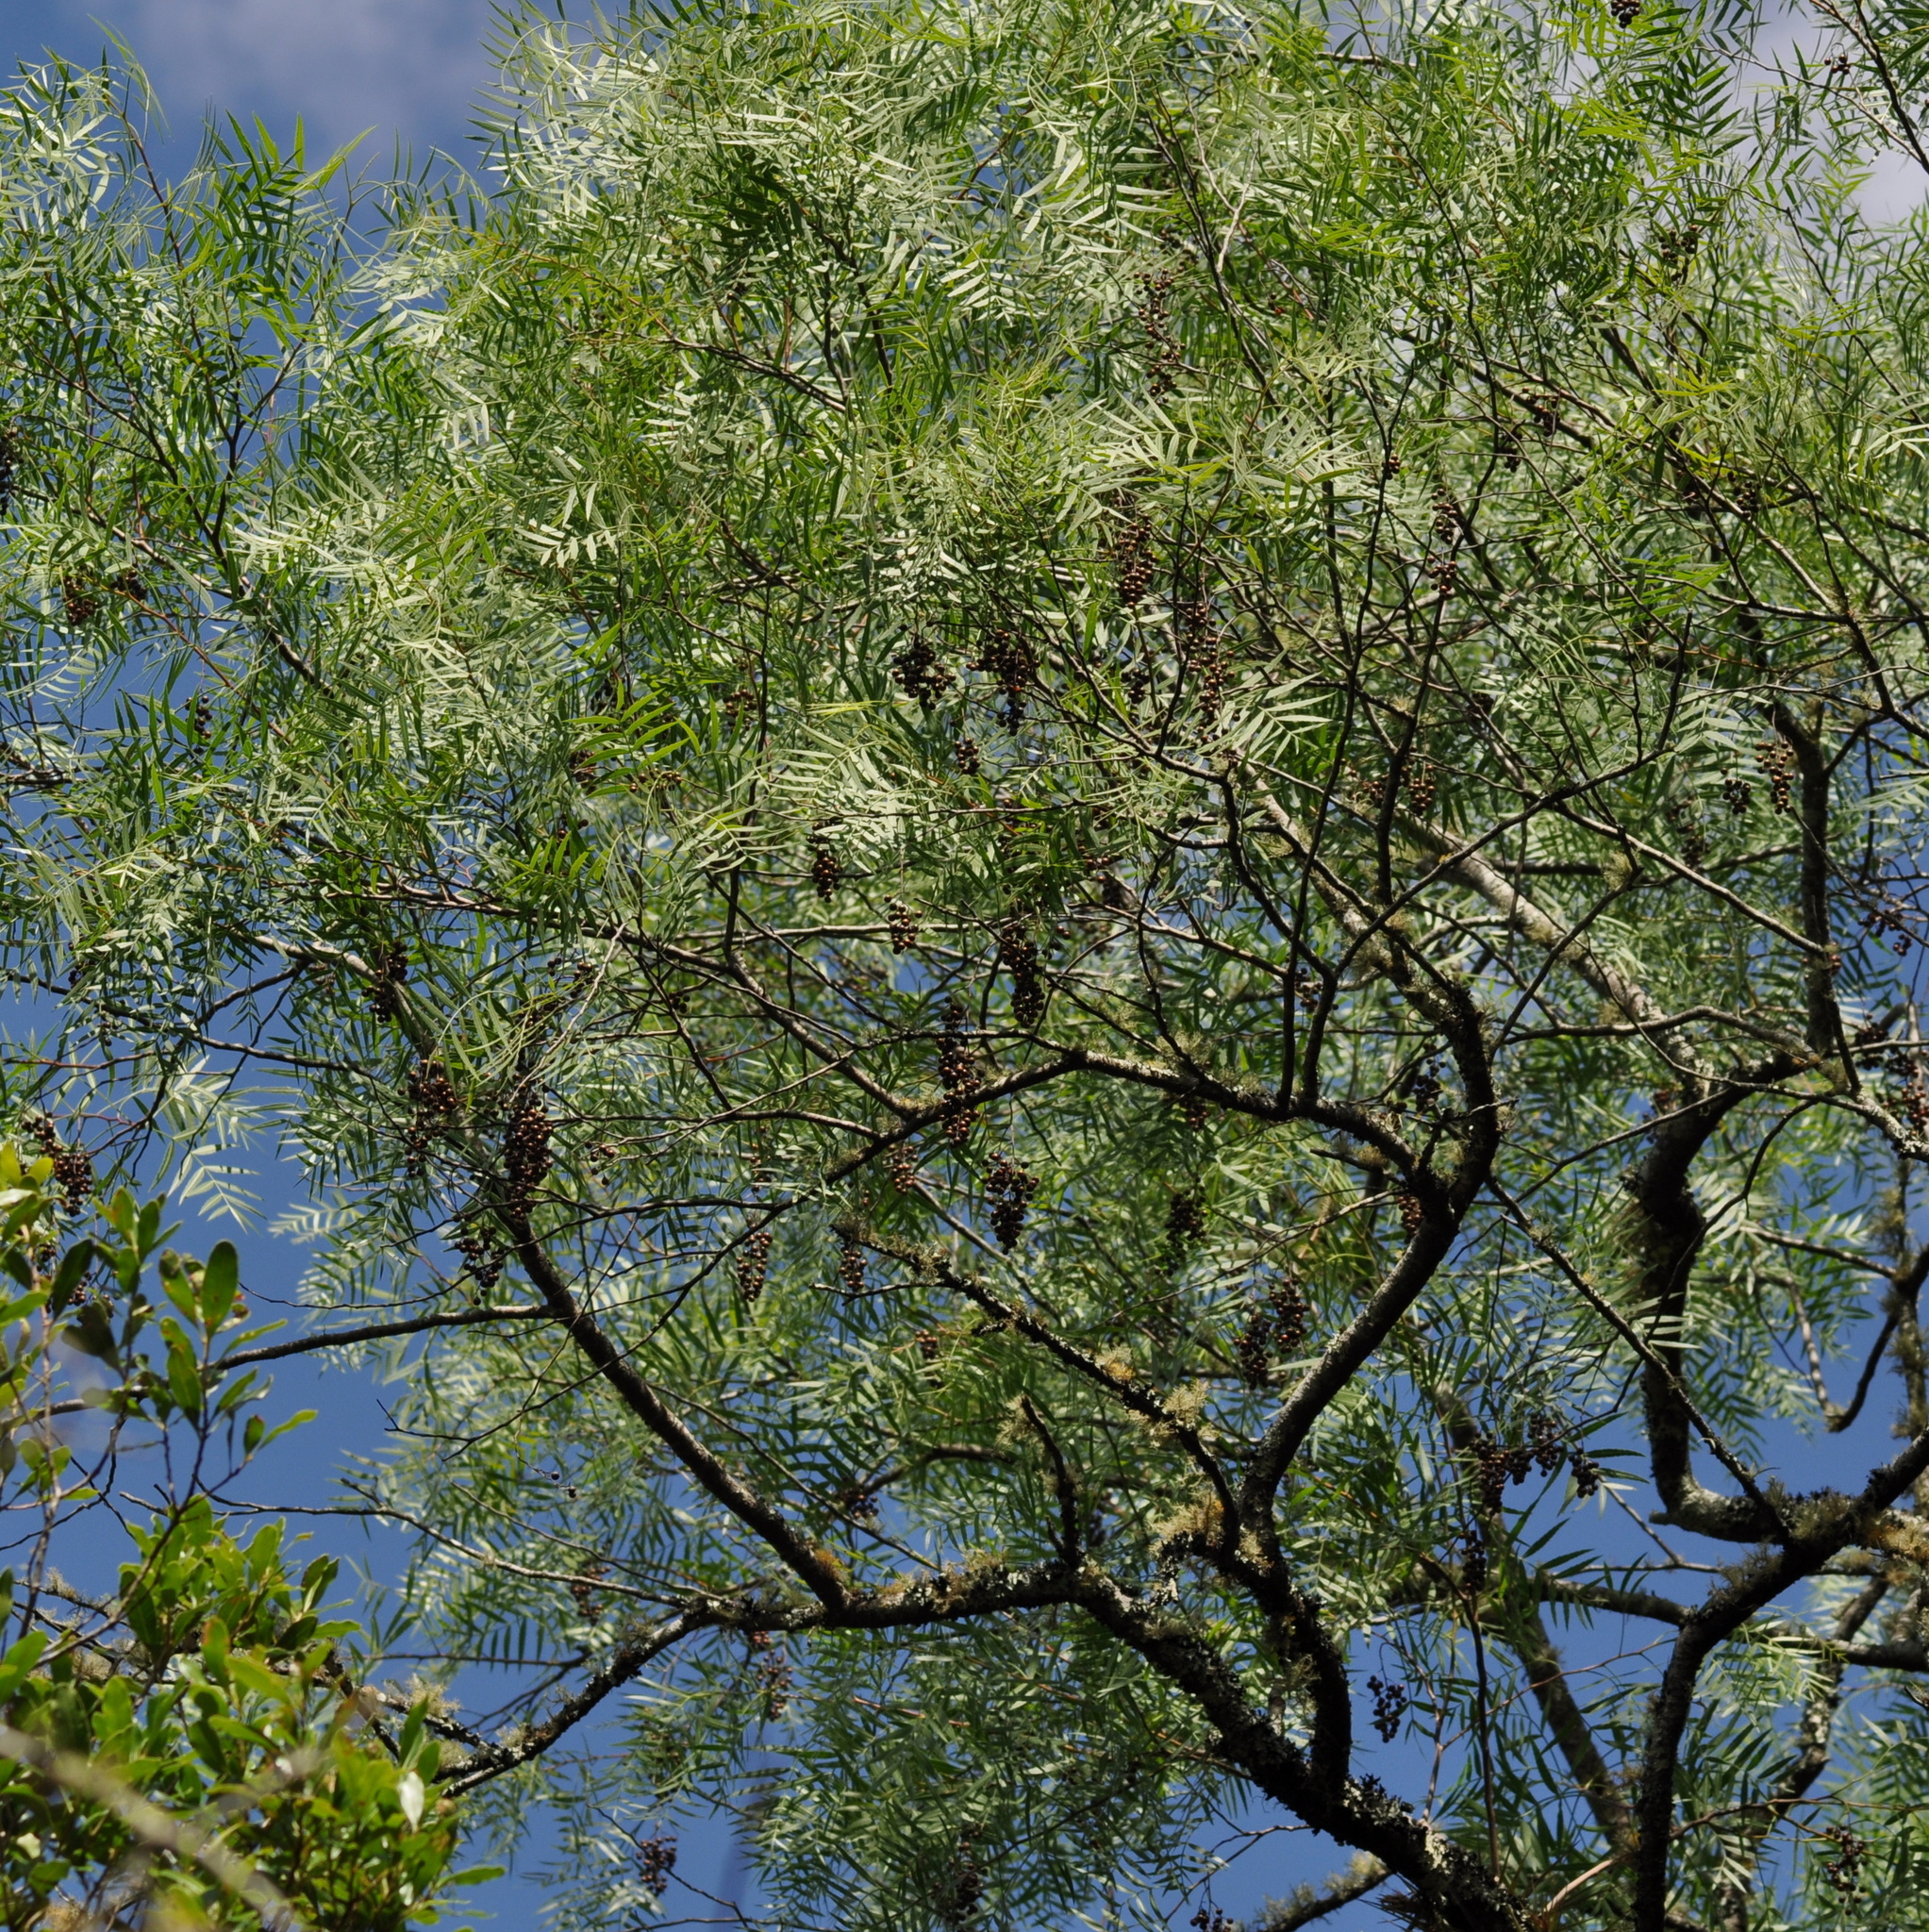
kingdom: Plantae
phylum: Tracheophyta
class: Magnoliopsida
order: Sapindales
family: Anacardiaceae
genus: Schinus
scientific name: Schinus molle
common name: Peruvian peppertree
